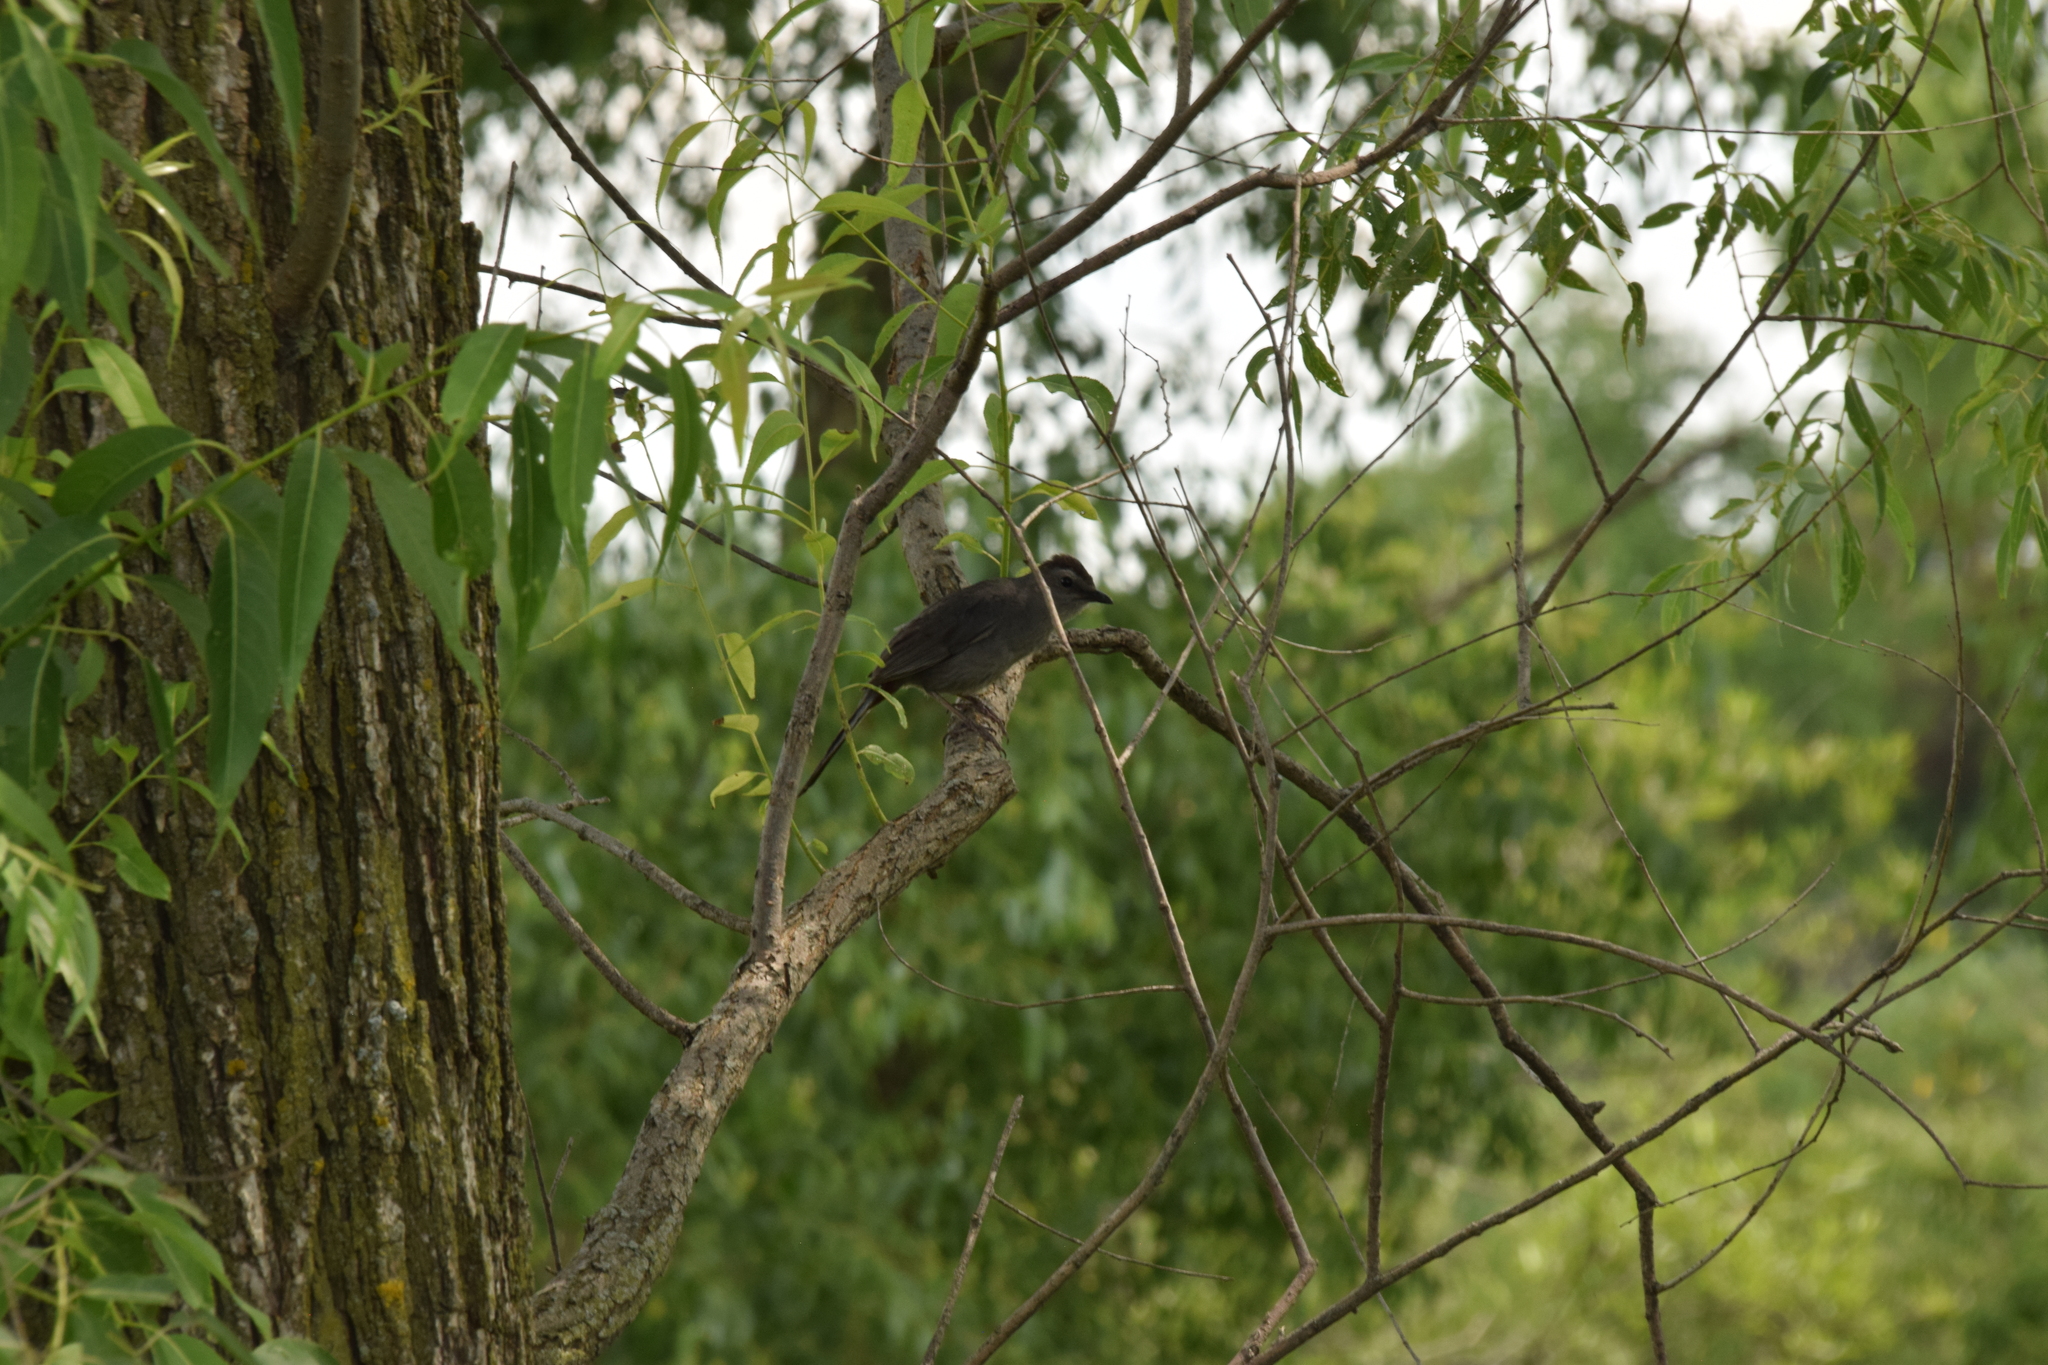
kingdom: Animalia
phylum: Chordata
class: Aves
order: Passeriformes
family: Mimidae
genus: Dumetella
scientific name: Dumetella carolinensis
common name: Gray catbird
